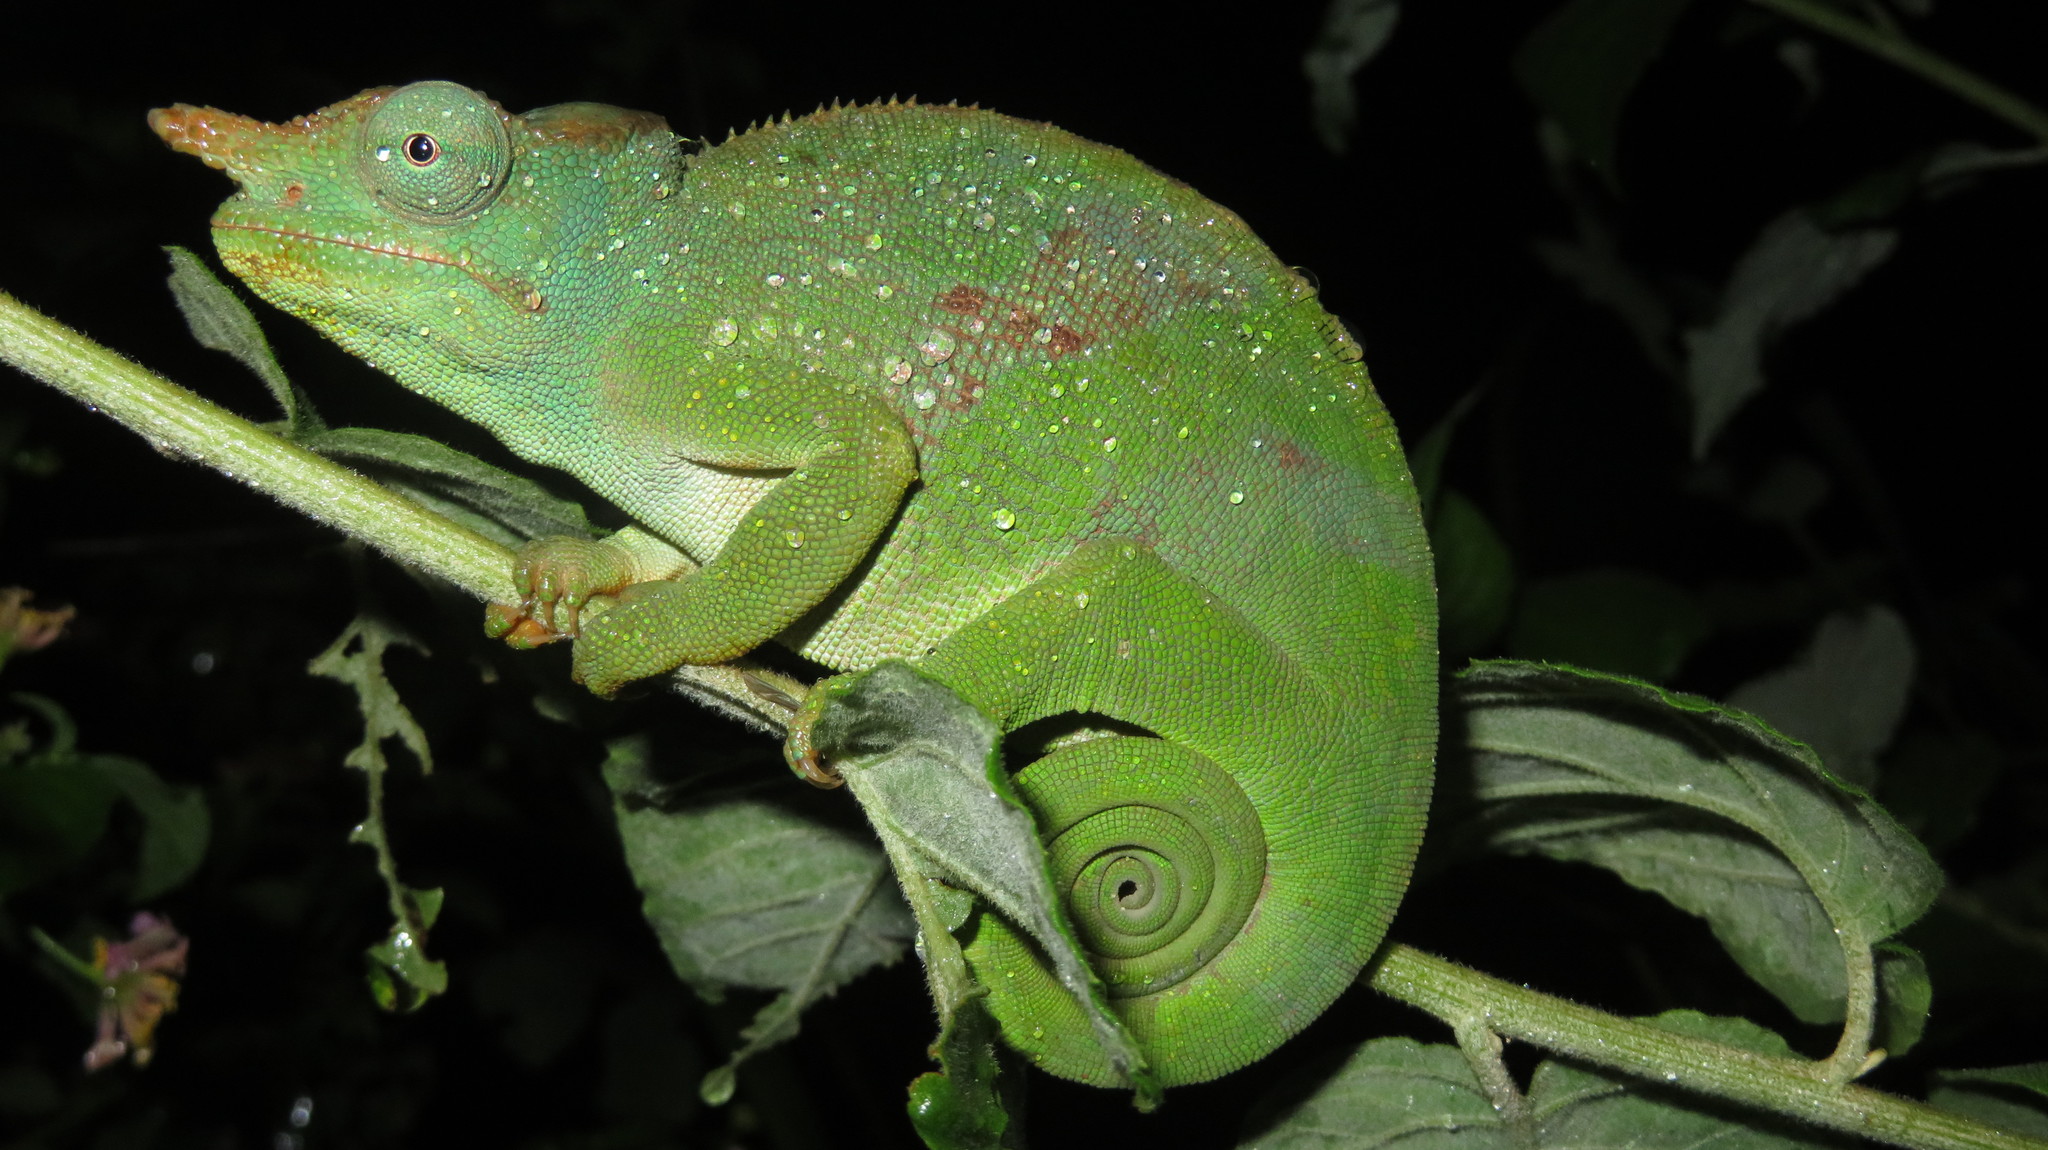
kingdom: Animalia
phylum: Chordata
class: Squamata
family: Chamaeleonidae
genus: Kinyongia
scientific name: Kinyongia matschiei
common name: Giant east usambara blade-horned chameleon
